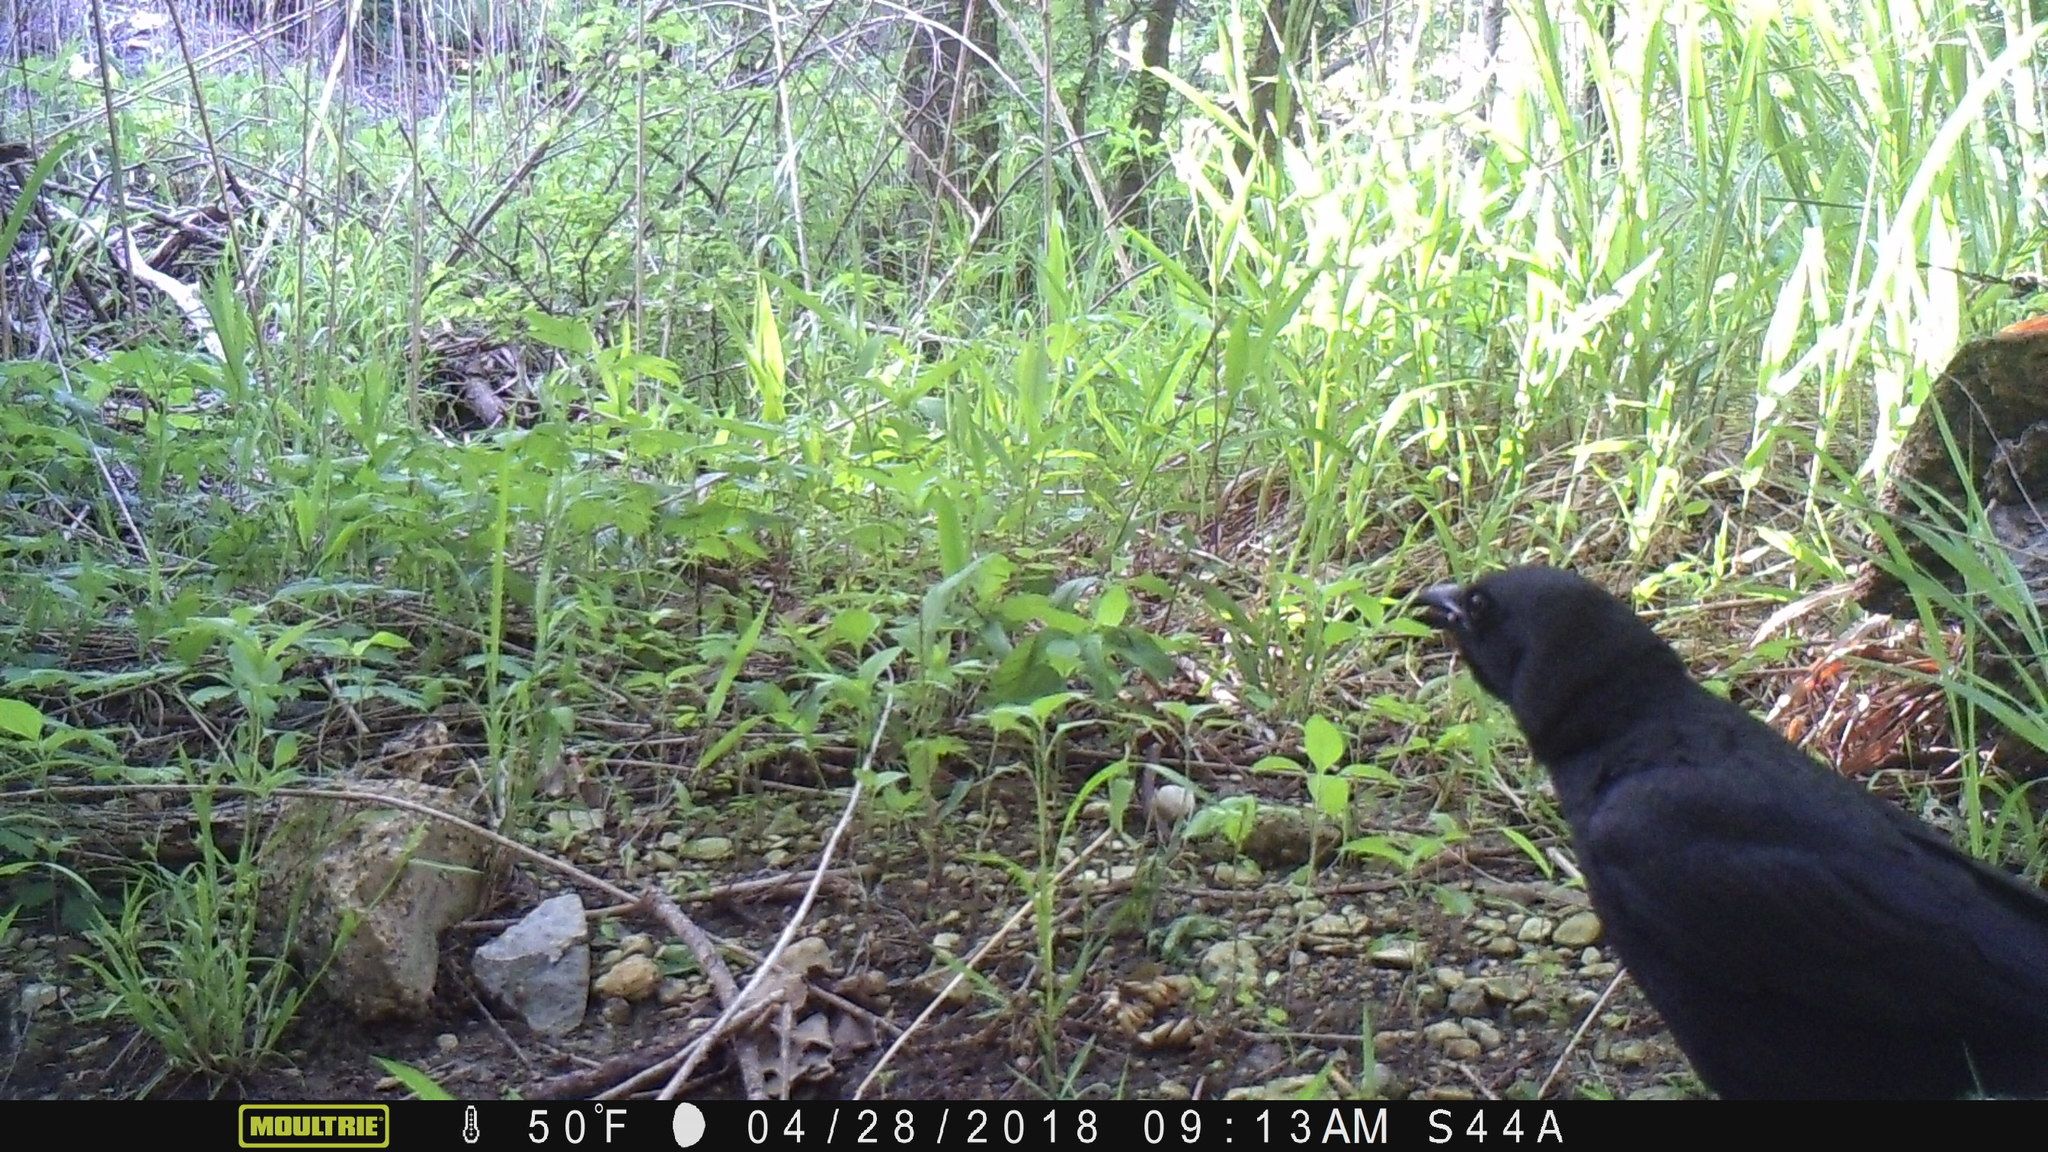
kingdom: Animalia
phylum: Chordata
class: Aves
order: Passeriformes
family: Corvidae
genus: Corvus
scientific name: Corvus brachyrhynchos
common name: American crow
